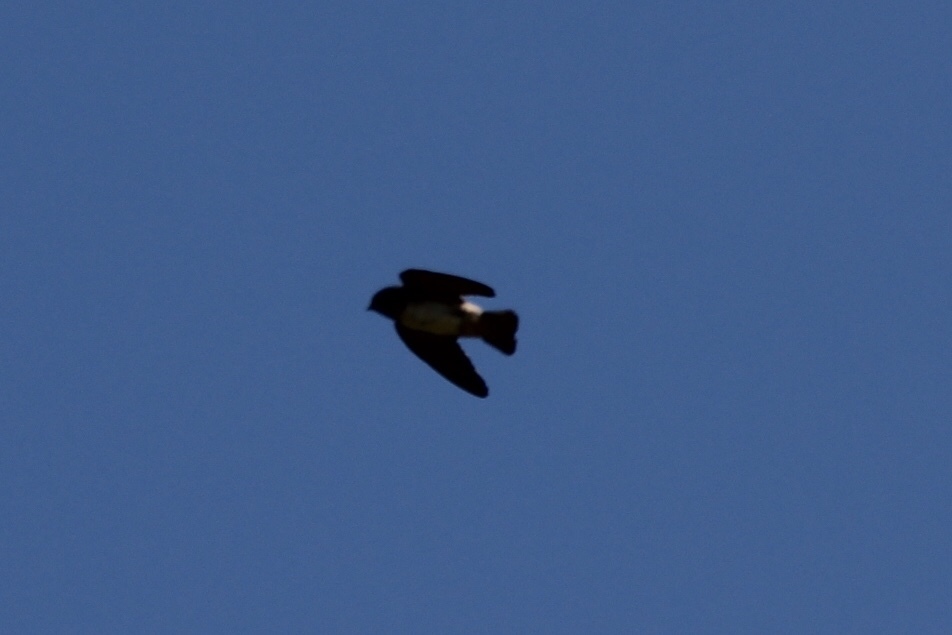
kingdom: Animalia
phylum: Chordata
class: Aves
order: Passeriformes
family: Hirundinidae
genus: Petrochelidon
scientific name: Petrochelidon pyrrhonota
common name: American cliff swallow
